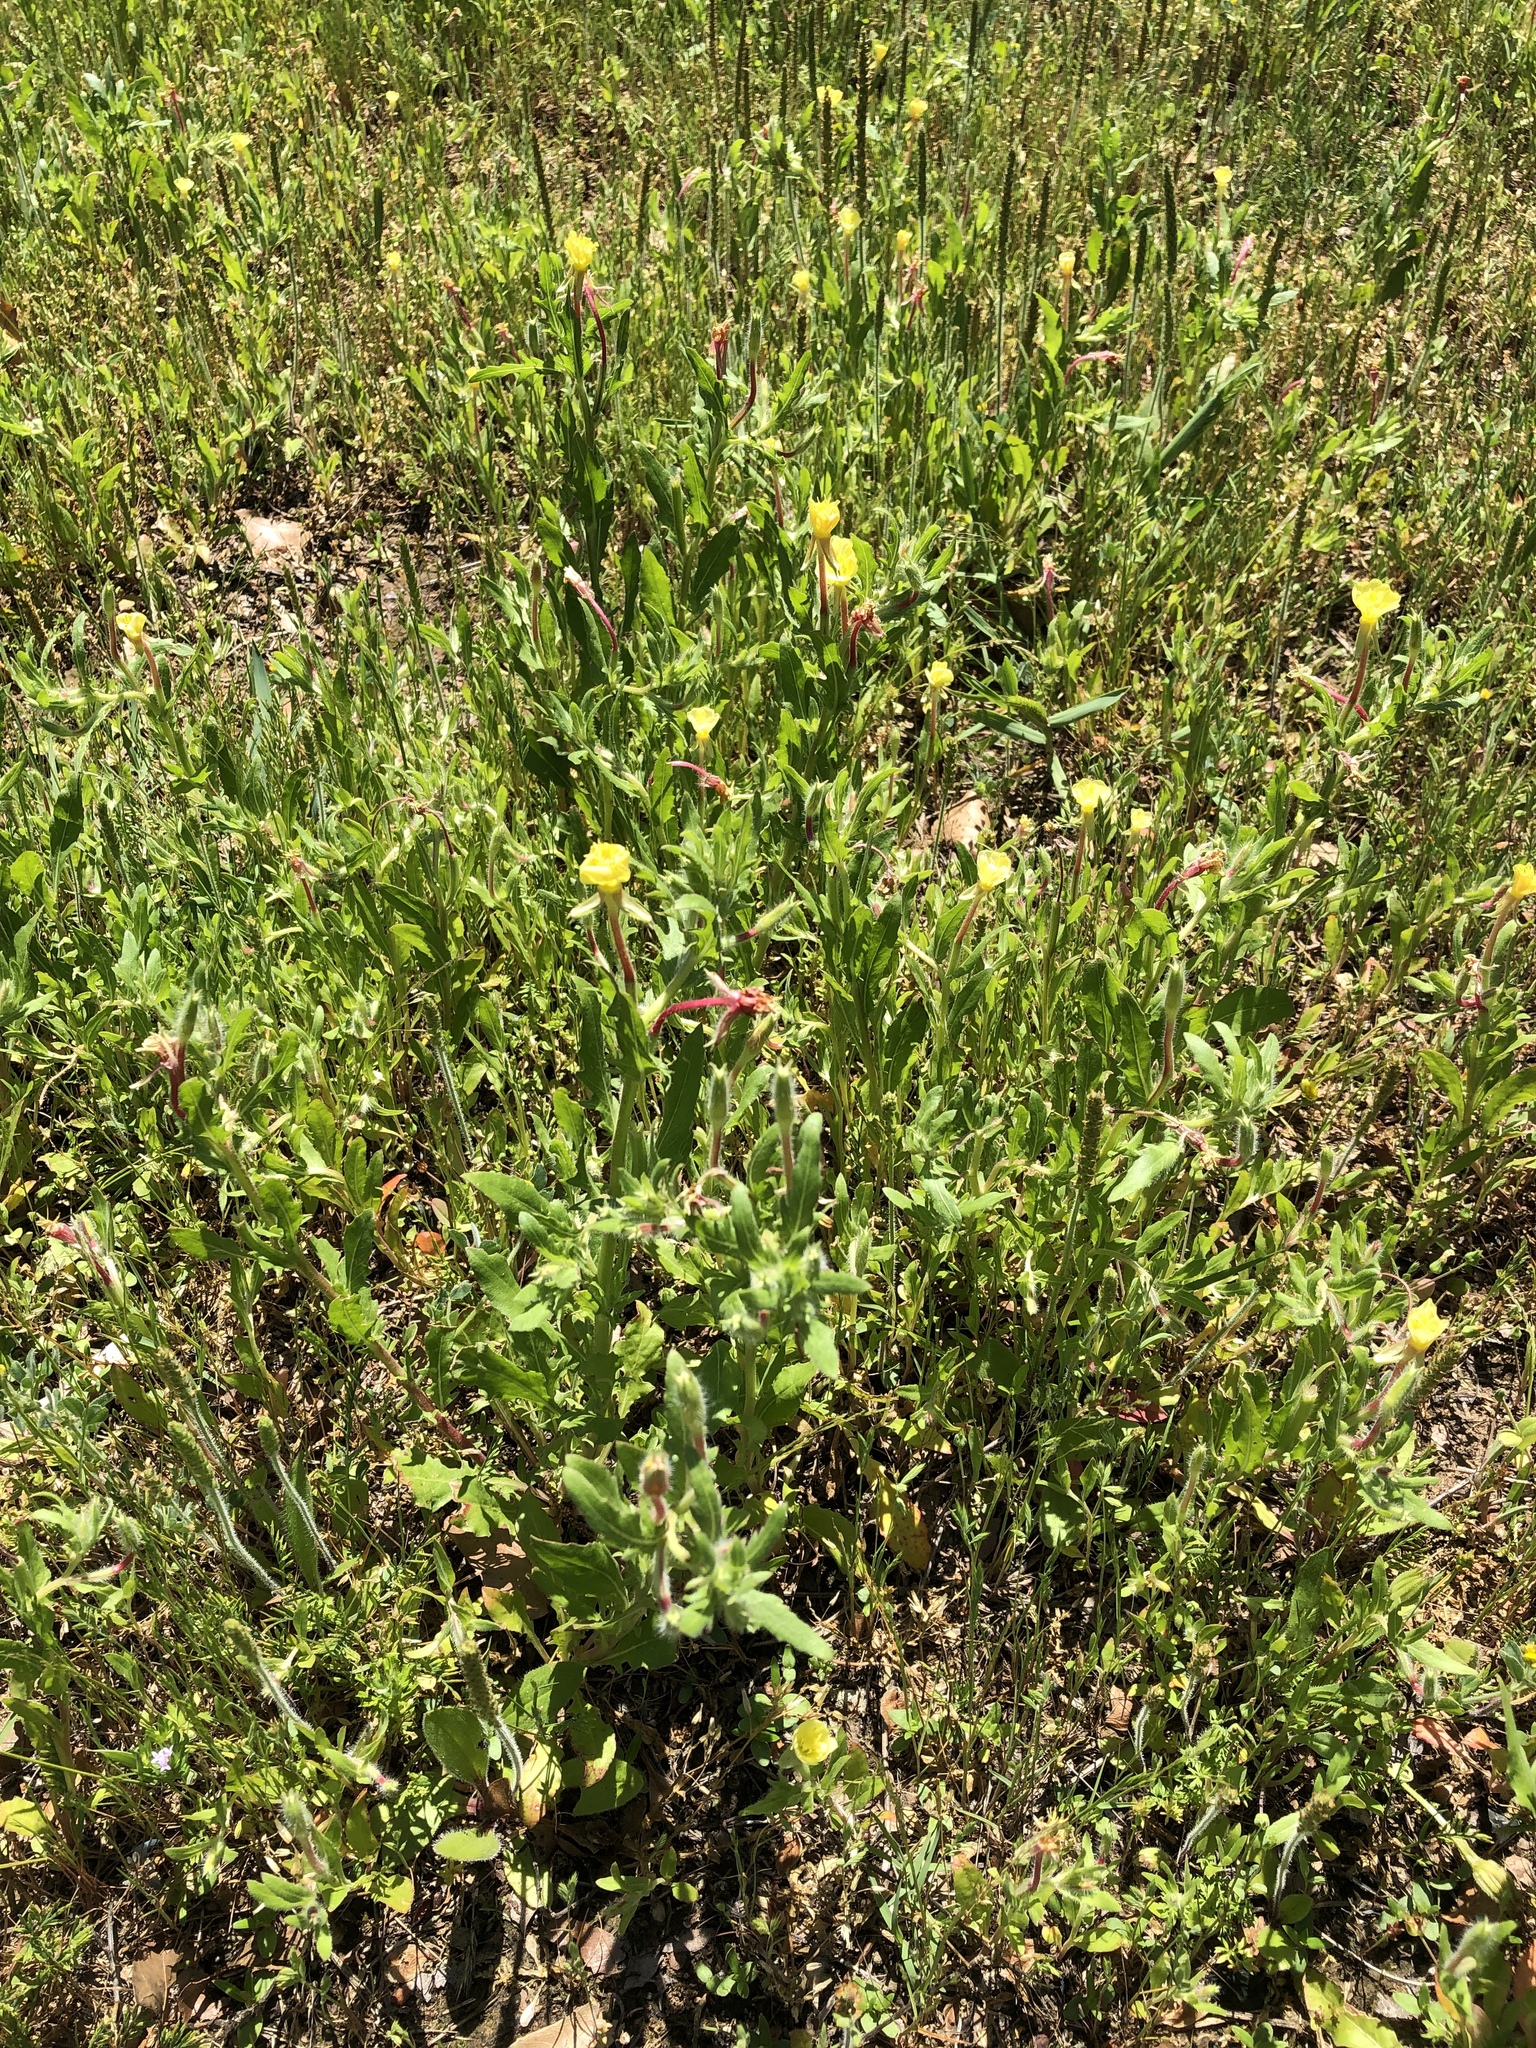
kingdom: Plantae
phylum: Tracheophyta
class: Magnoliopsida
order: Myrtales
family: Onagraceae
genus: Oenothera
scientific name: Oenothera laciniata
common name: Cut-leaved evening-primrose
